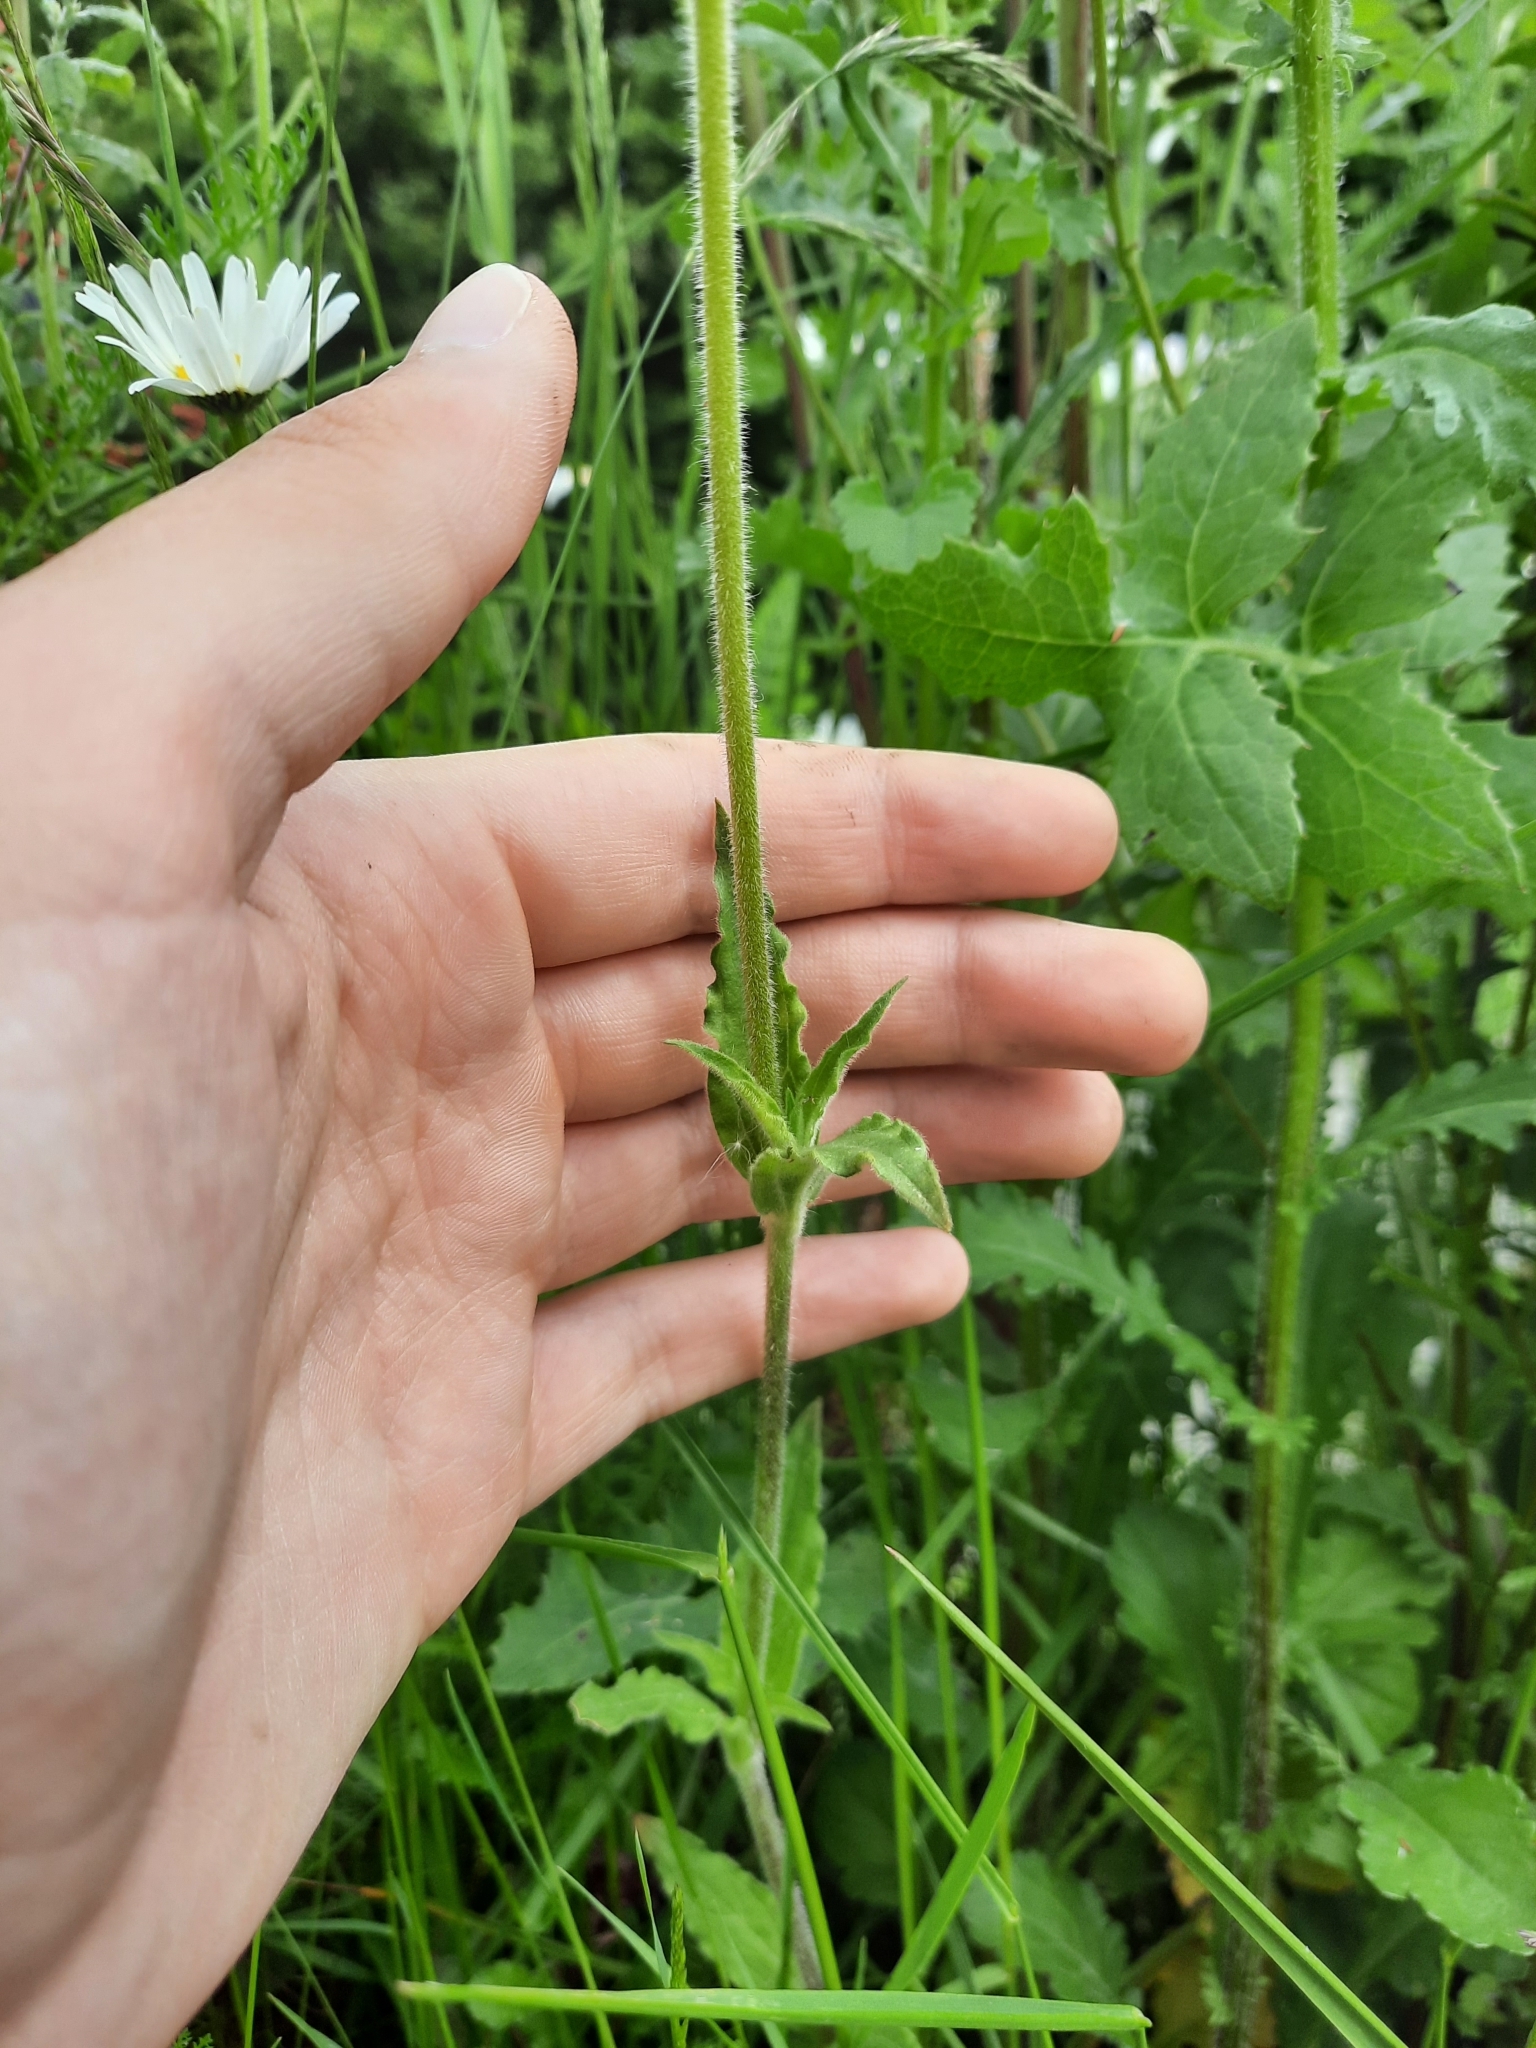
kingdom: Plantae
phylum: Tracheophyta
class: Magnoliopsida
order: Caryophyllales
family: Caryophyllaceae
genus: Silene
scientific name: Silene latifolia
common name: White campion
